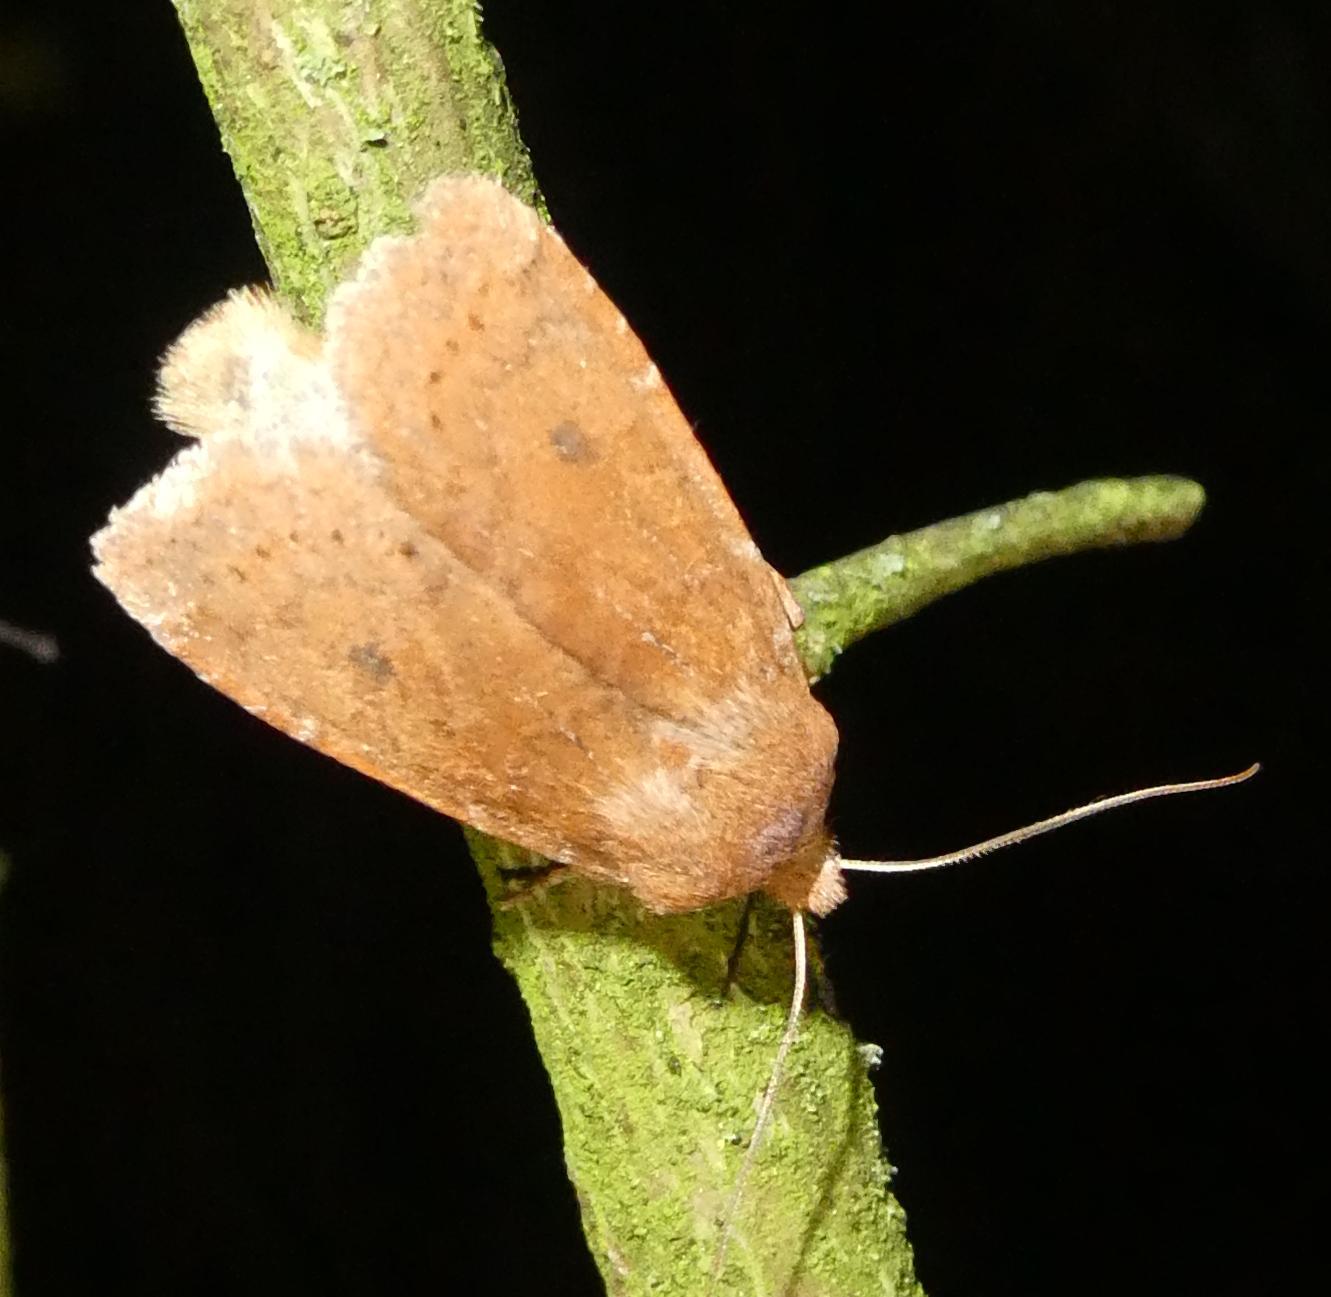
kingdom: Animalia
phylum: Arthropoda
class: Insecta
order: Lepidoptera
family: Noctuidae
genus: Conistra
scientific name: Conistra vaccinii
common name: Chestnut
